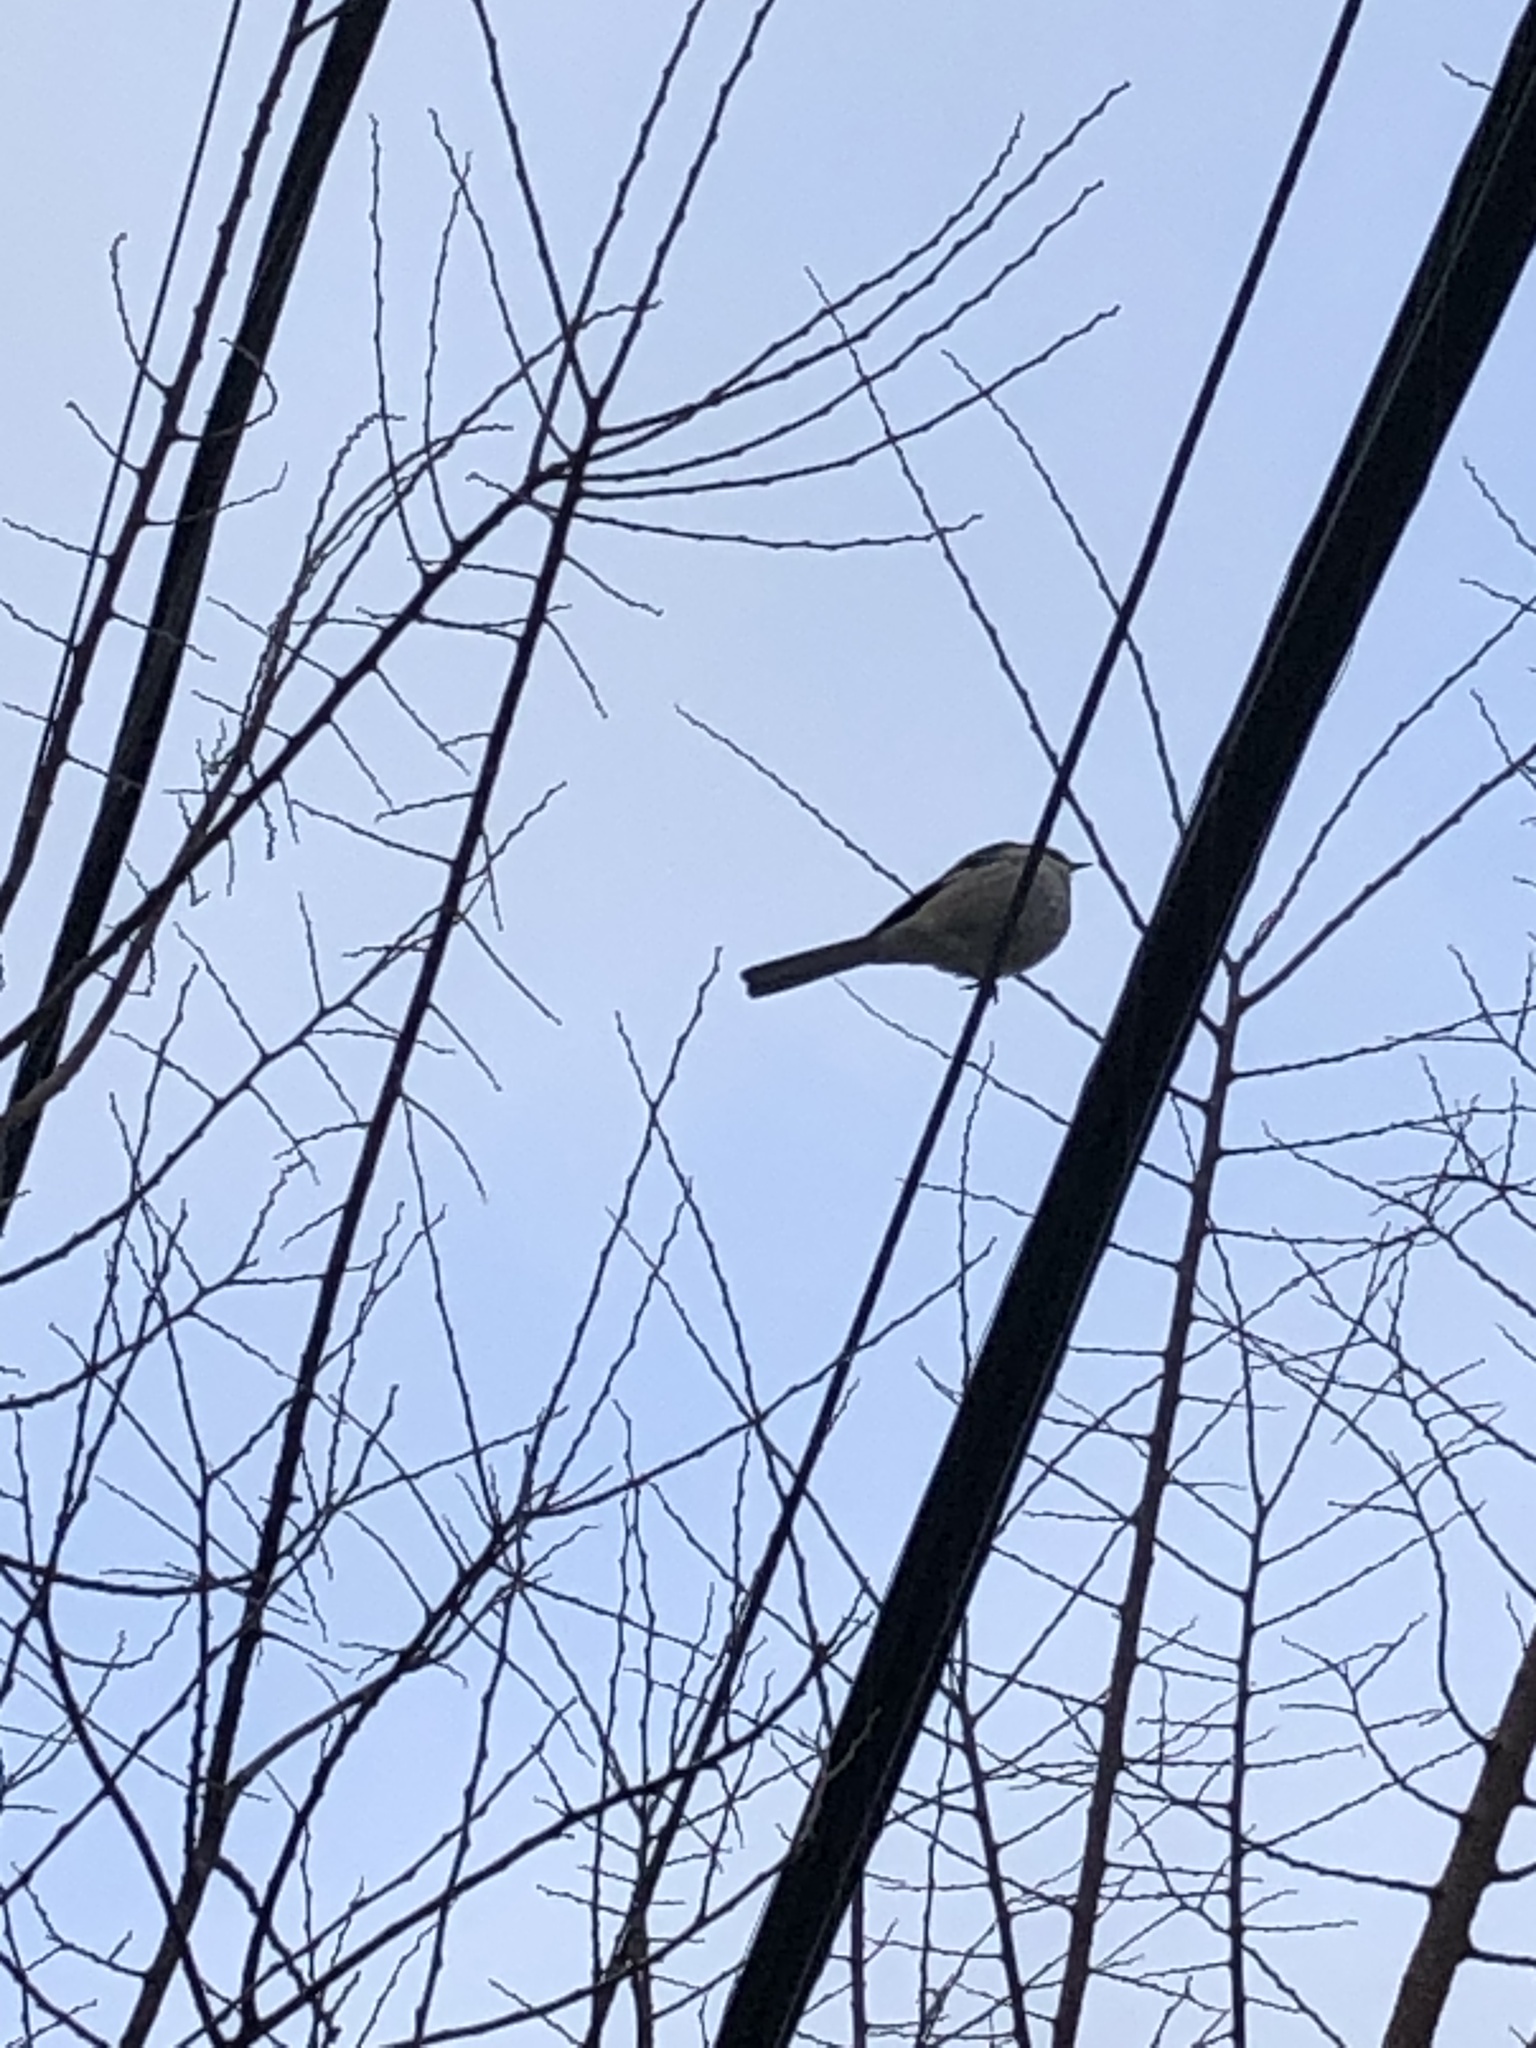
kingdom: Animalia
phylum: Chordata
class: Aves
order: Passeriformes
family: Mimidae
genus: Mimus
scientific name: Mimus polyglottos
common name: Northern mockingbird
